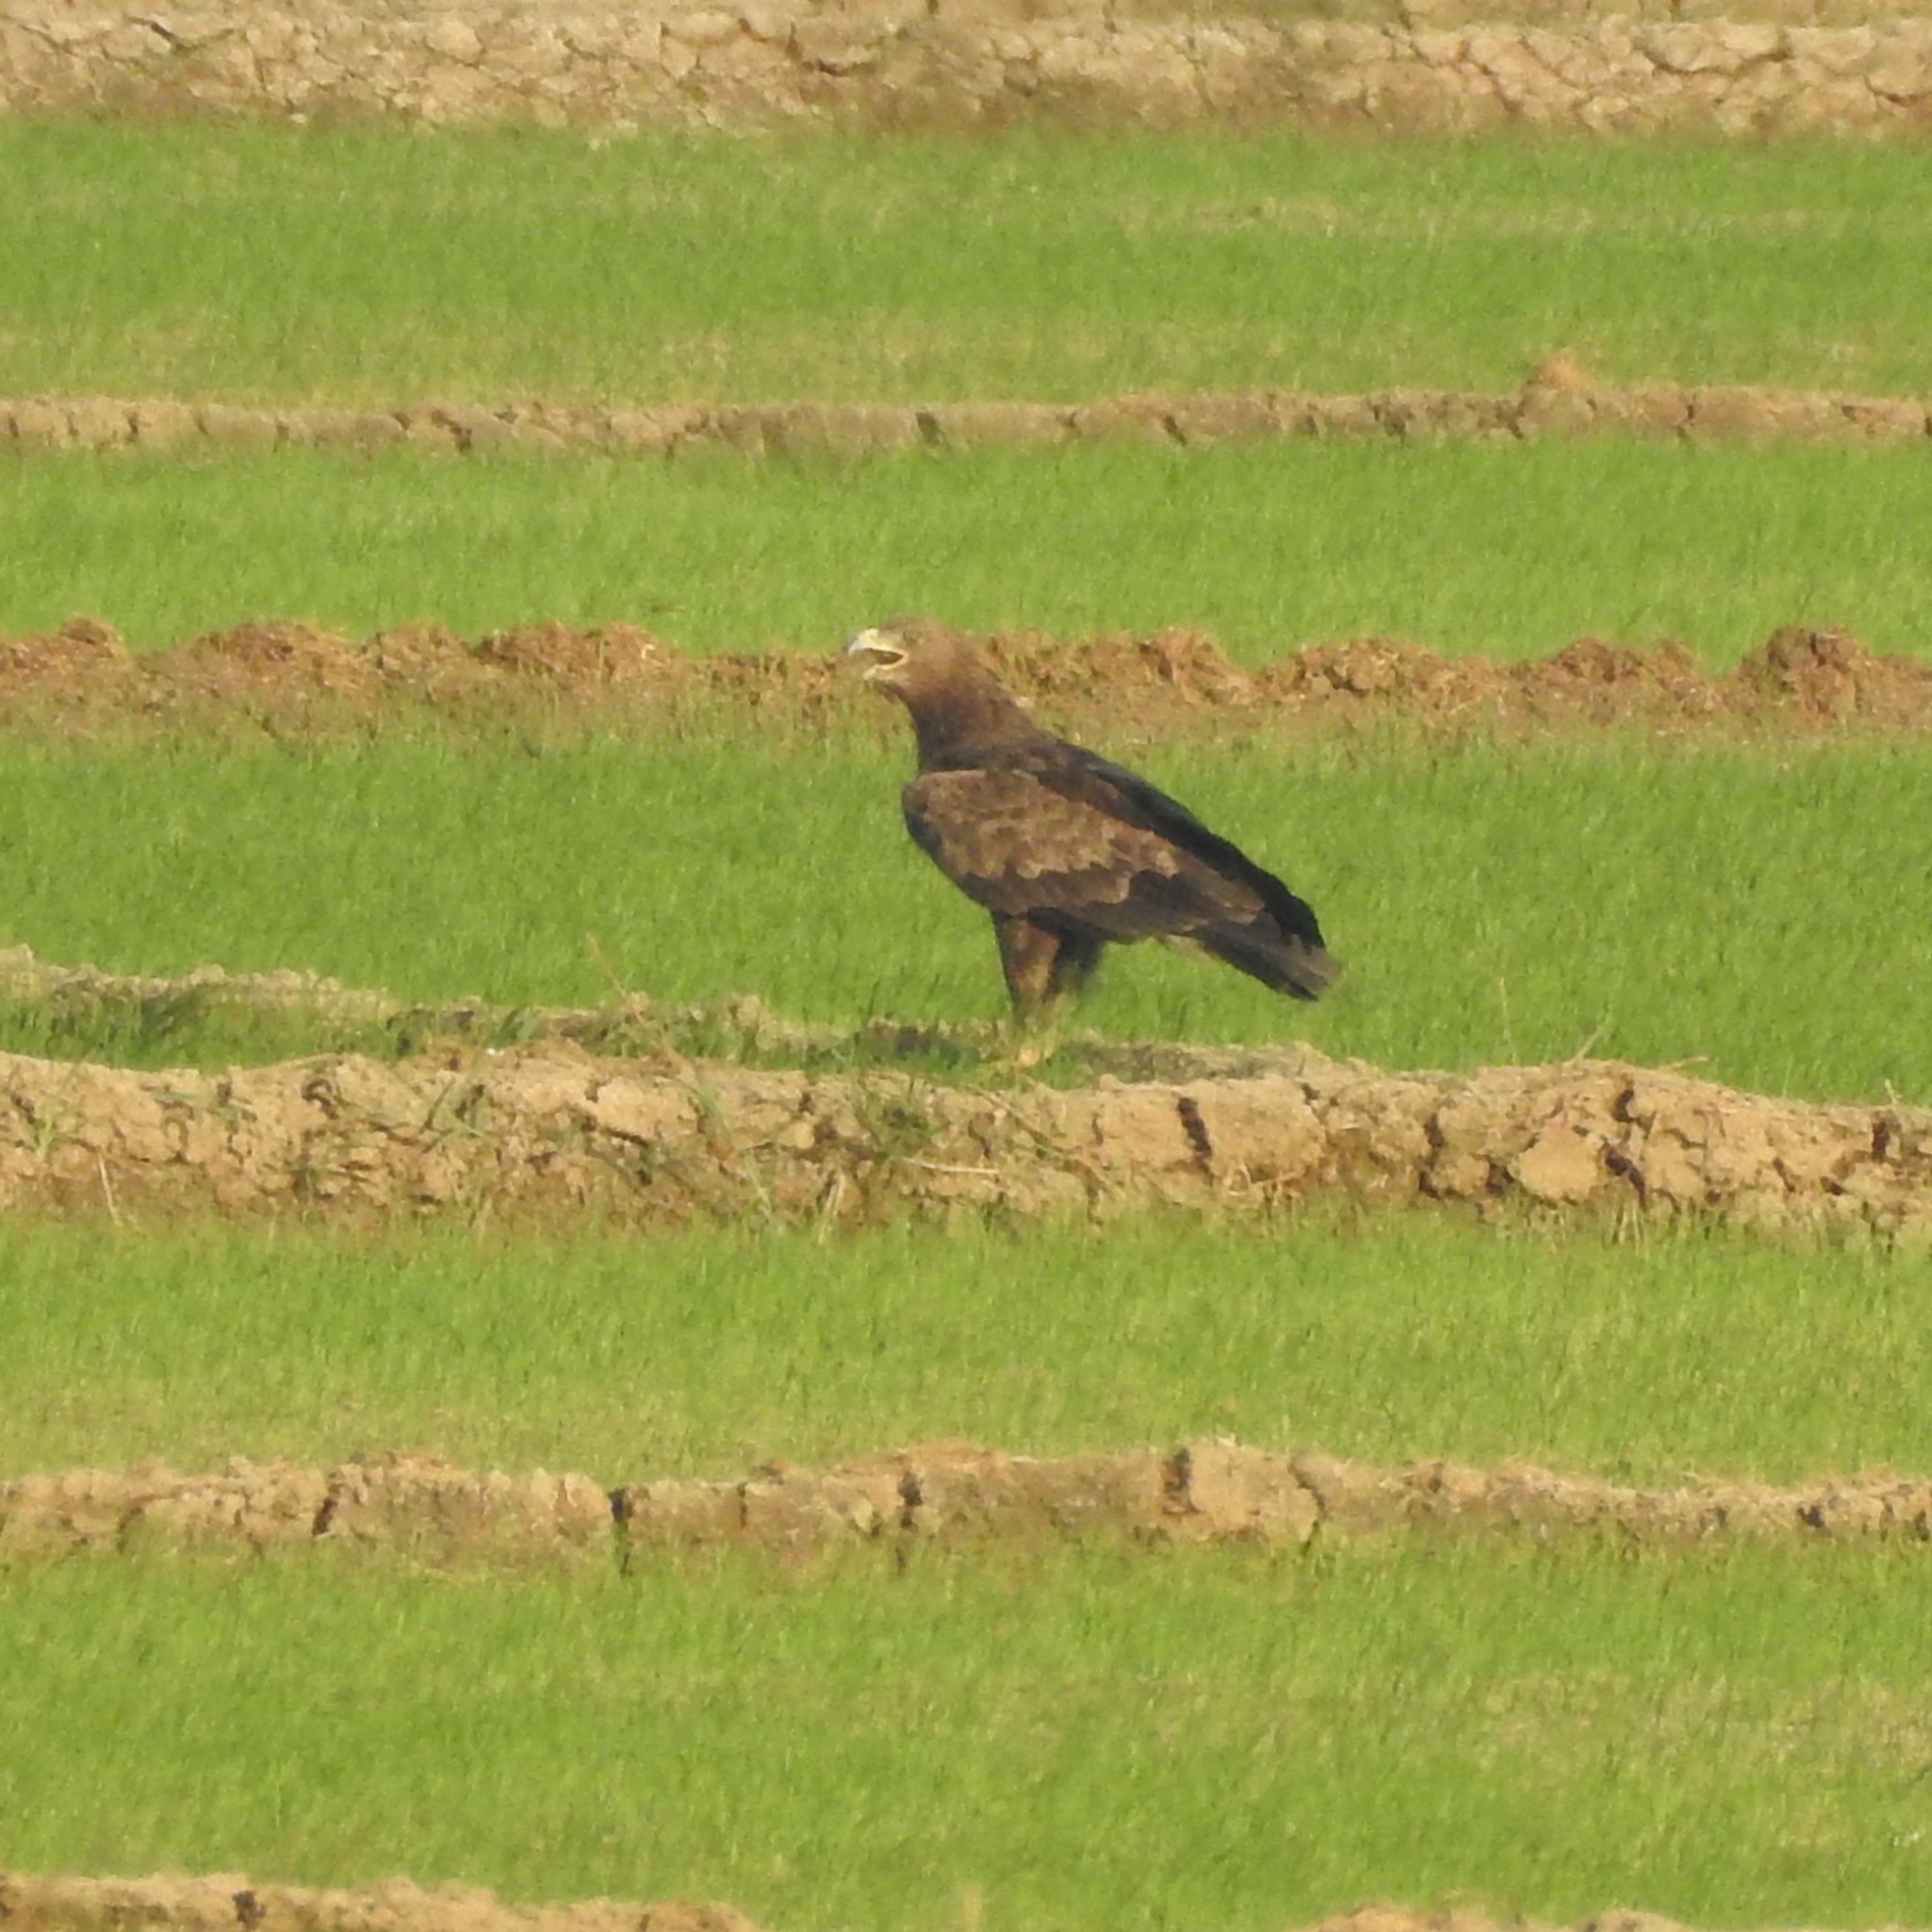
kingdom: Animalia
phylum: Chordata
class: Aves
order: Accipitriformes
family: Accipitridae
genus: Aquila
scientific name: Aquila clanga
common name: Greater spotted eagle
